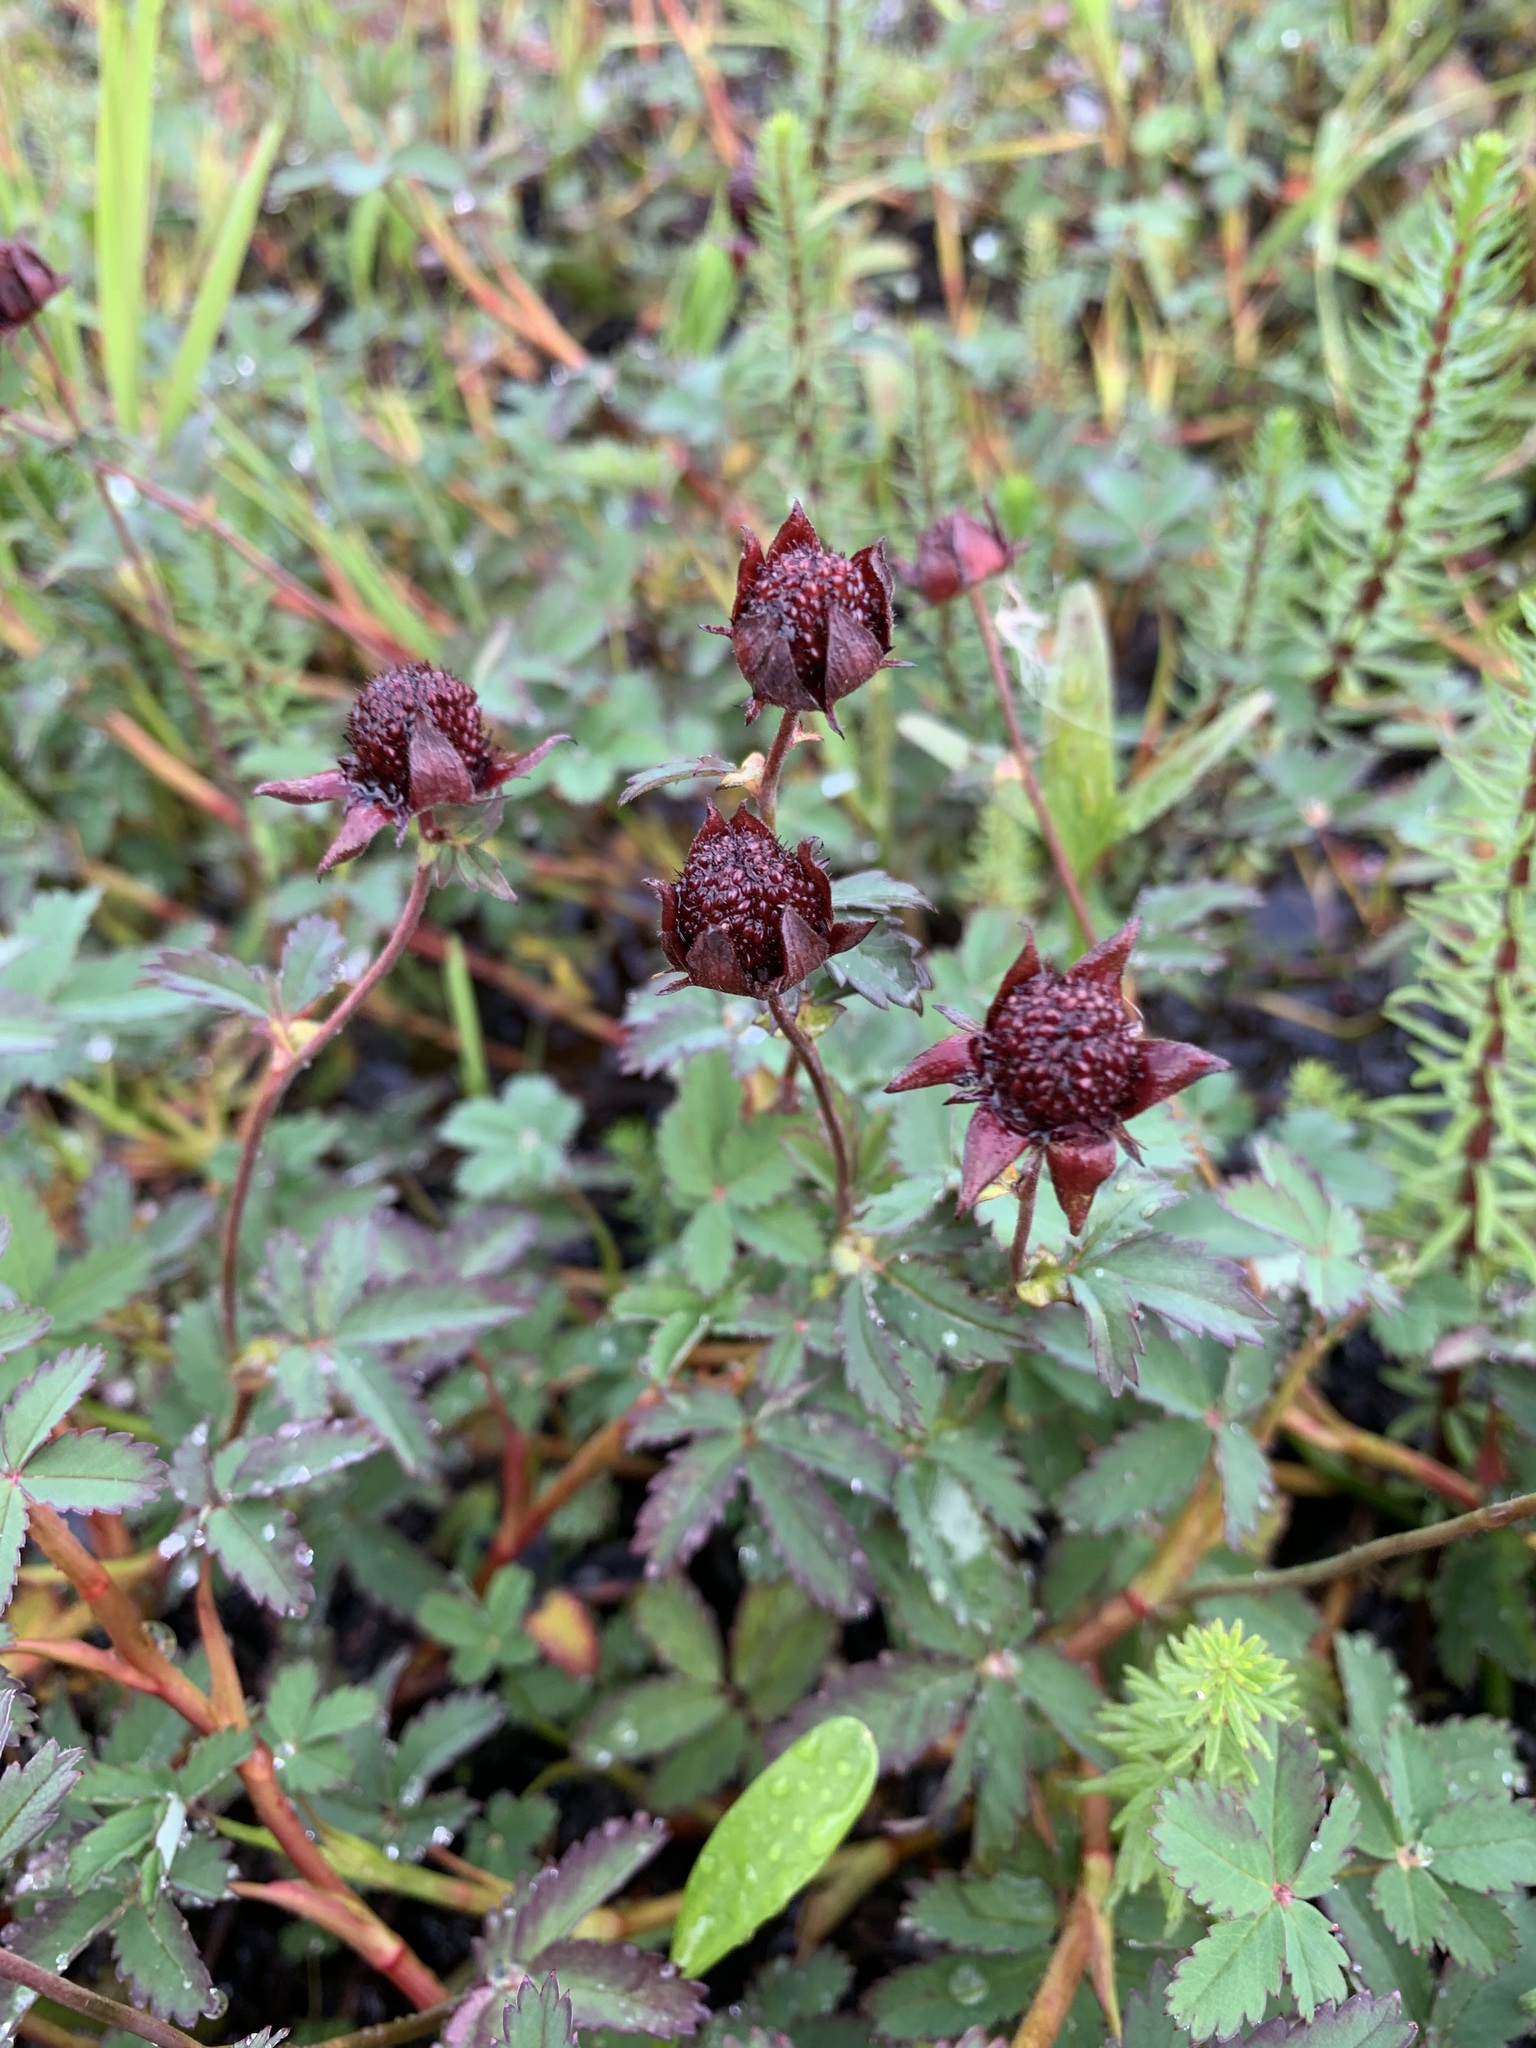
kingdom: Plantae
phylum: Tracheophyta
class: Magnoliopsida
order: Rosales
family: Rosaceae
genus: Comarum
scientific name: Comarum palustre
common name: Marsh cinquefoil
